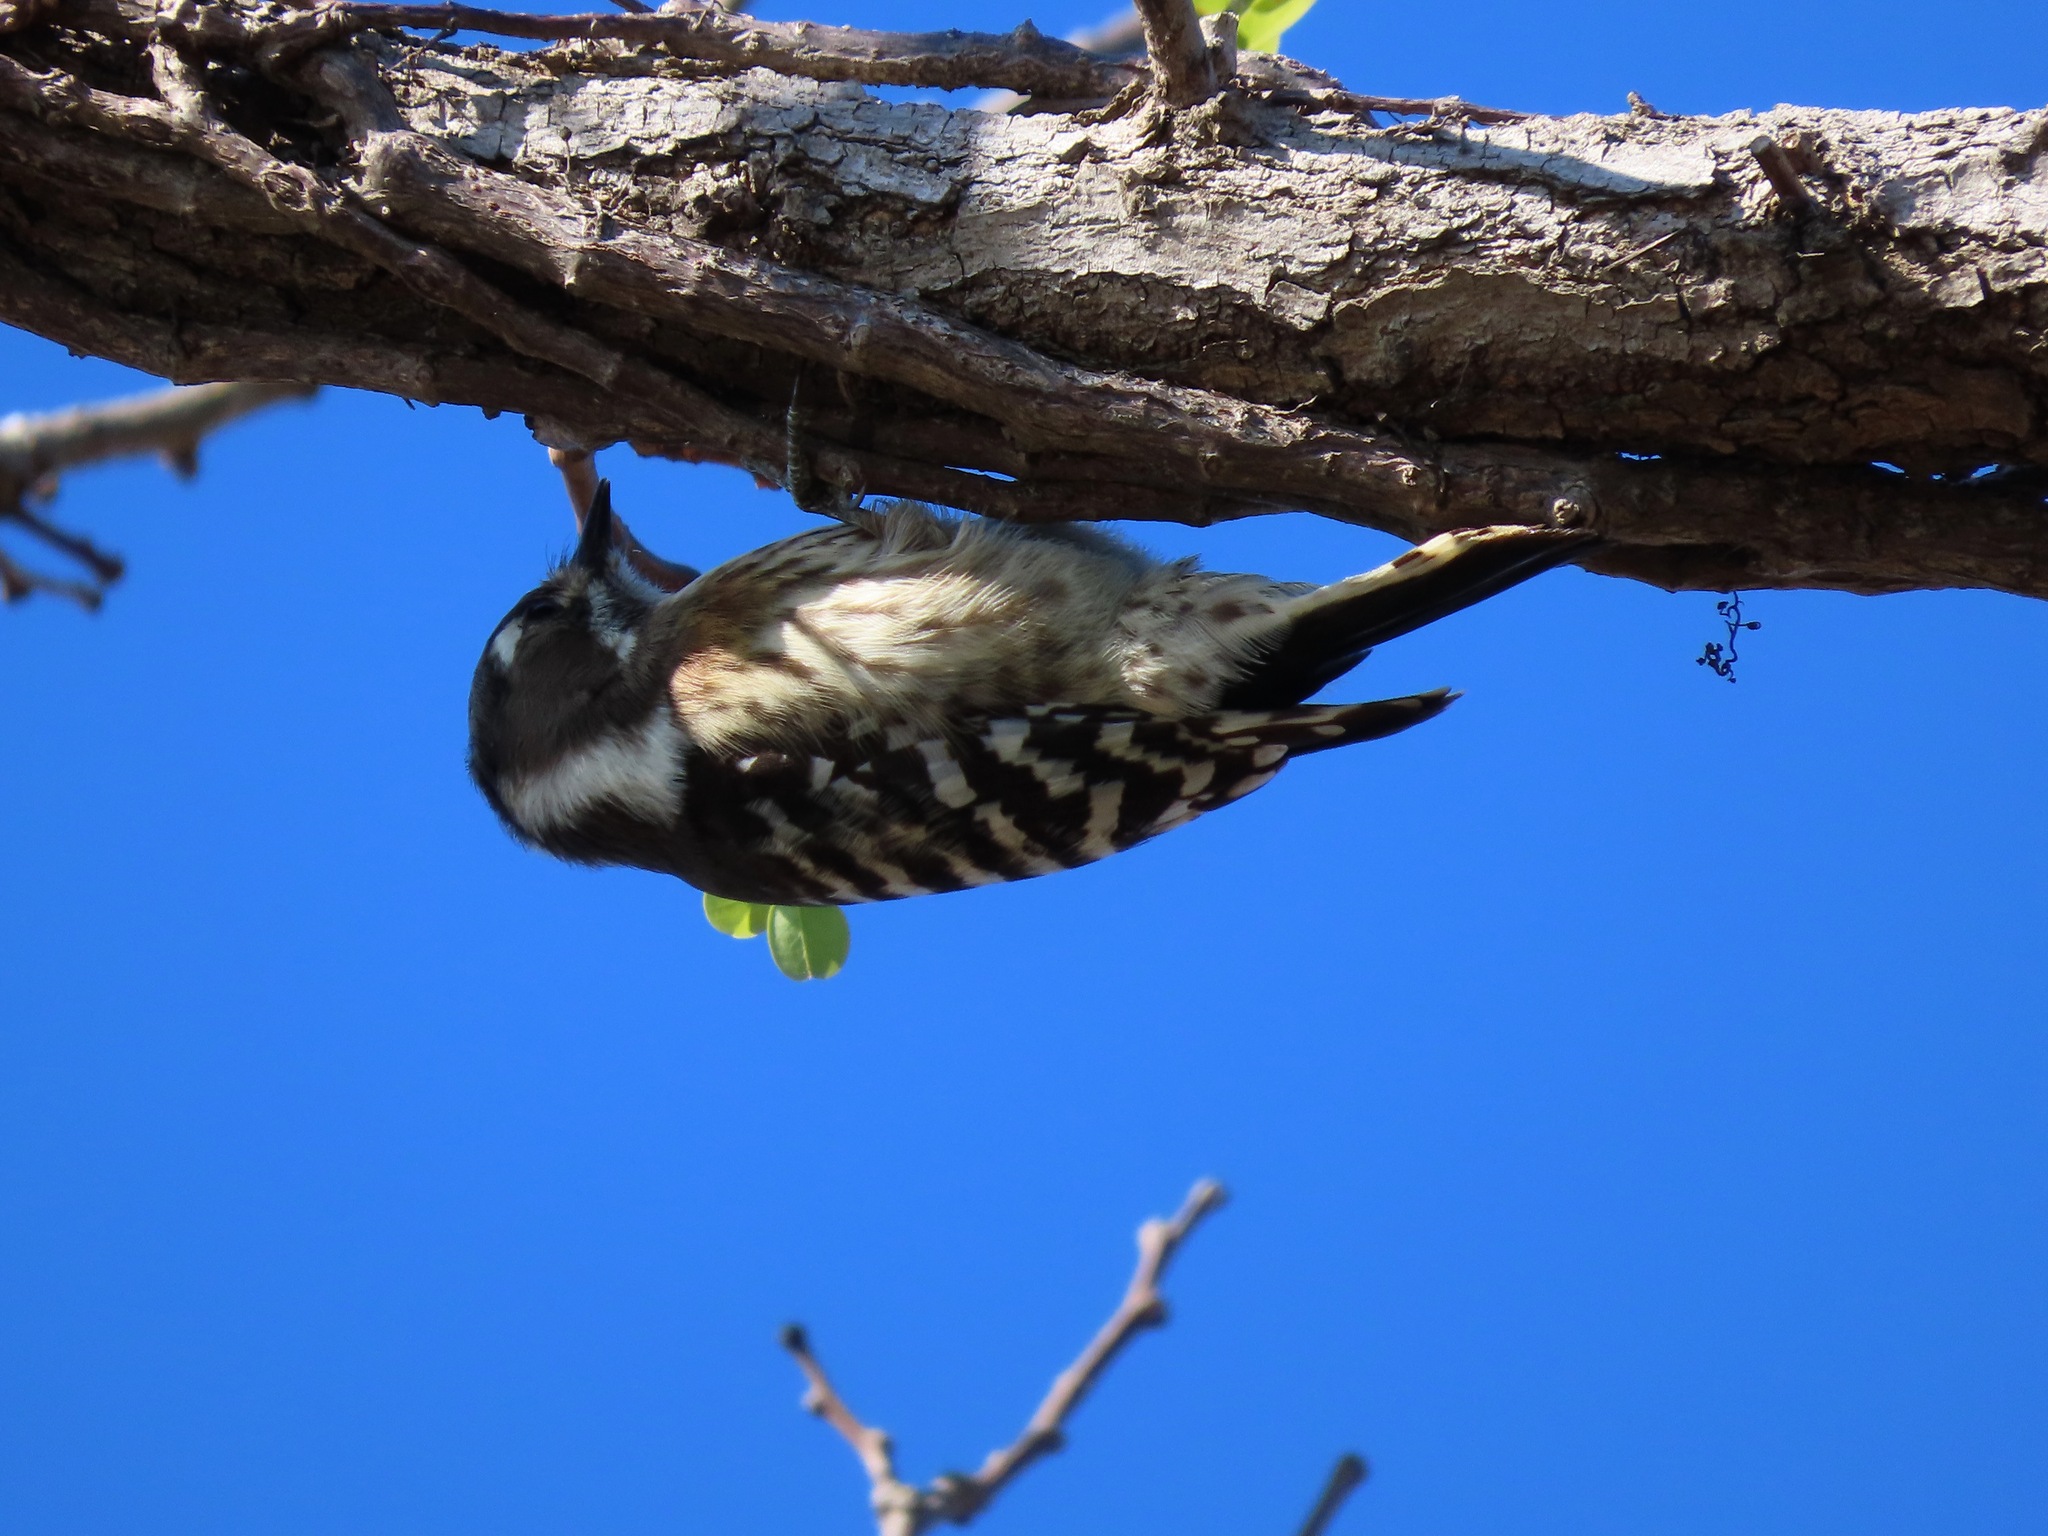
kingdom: Animalia
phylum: Chordata
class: Aves
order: Piciformes
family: Picidae
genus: Yungipicus
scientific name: Yungipicus kizuki
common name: Japanese pygmy woodpecker
